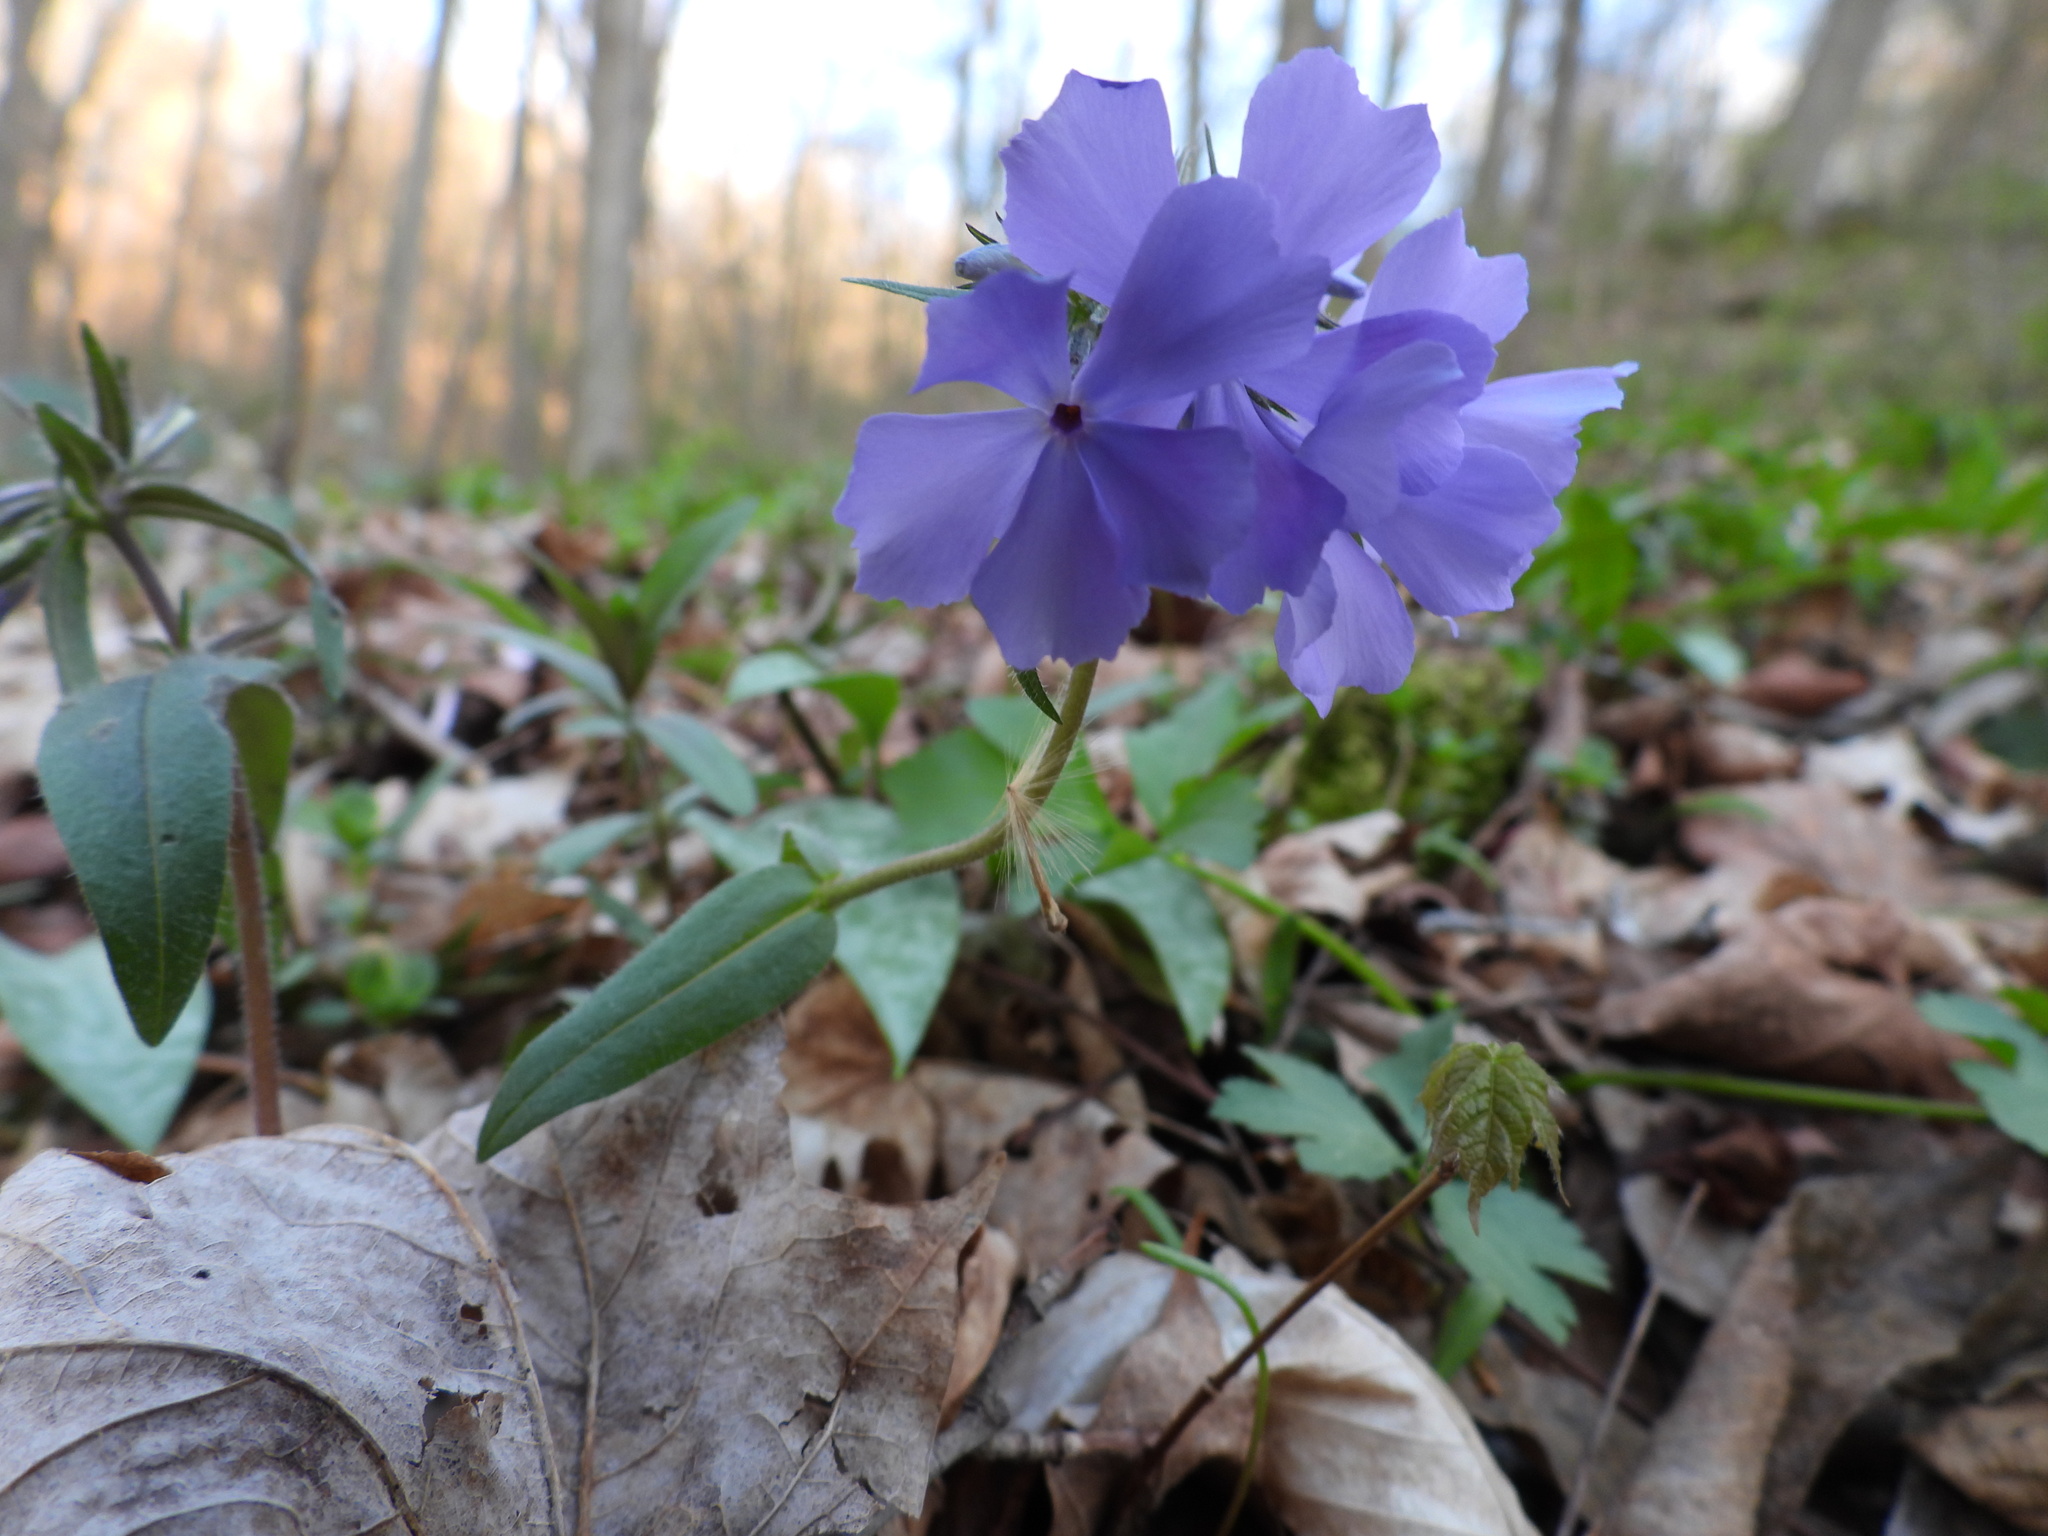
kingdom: Plantae
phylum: Tracheophyta
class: Magnoliopsida
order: Ericales
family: Polemoniaceae
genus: Phlox
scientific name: Phlox divaricata
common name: Blue phlox
